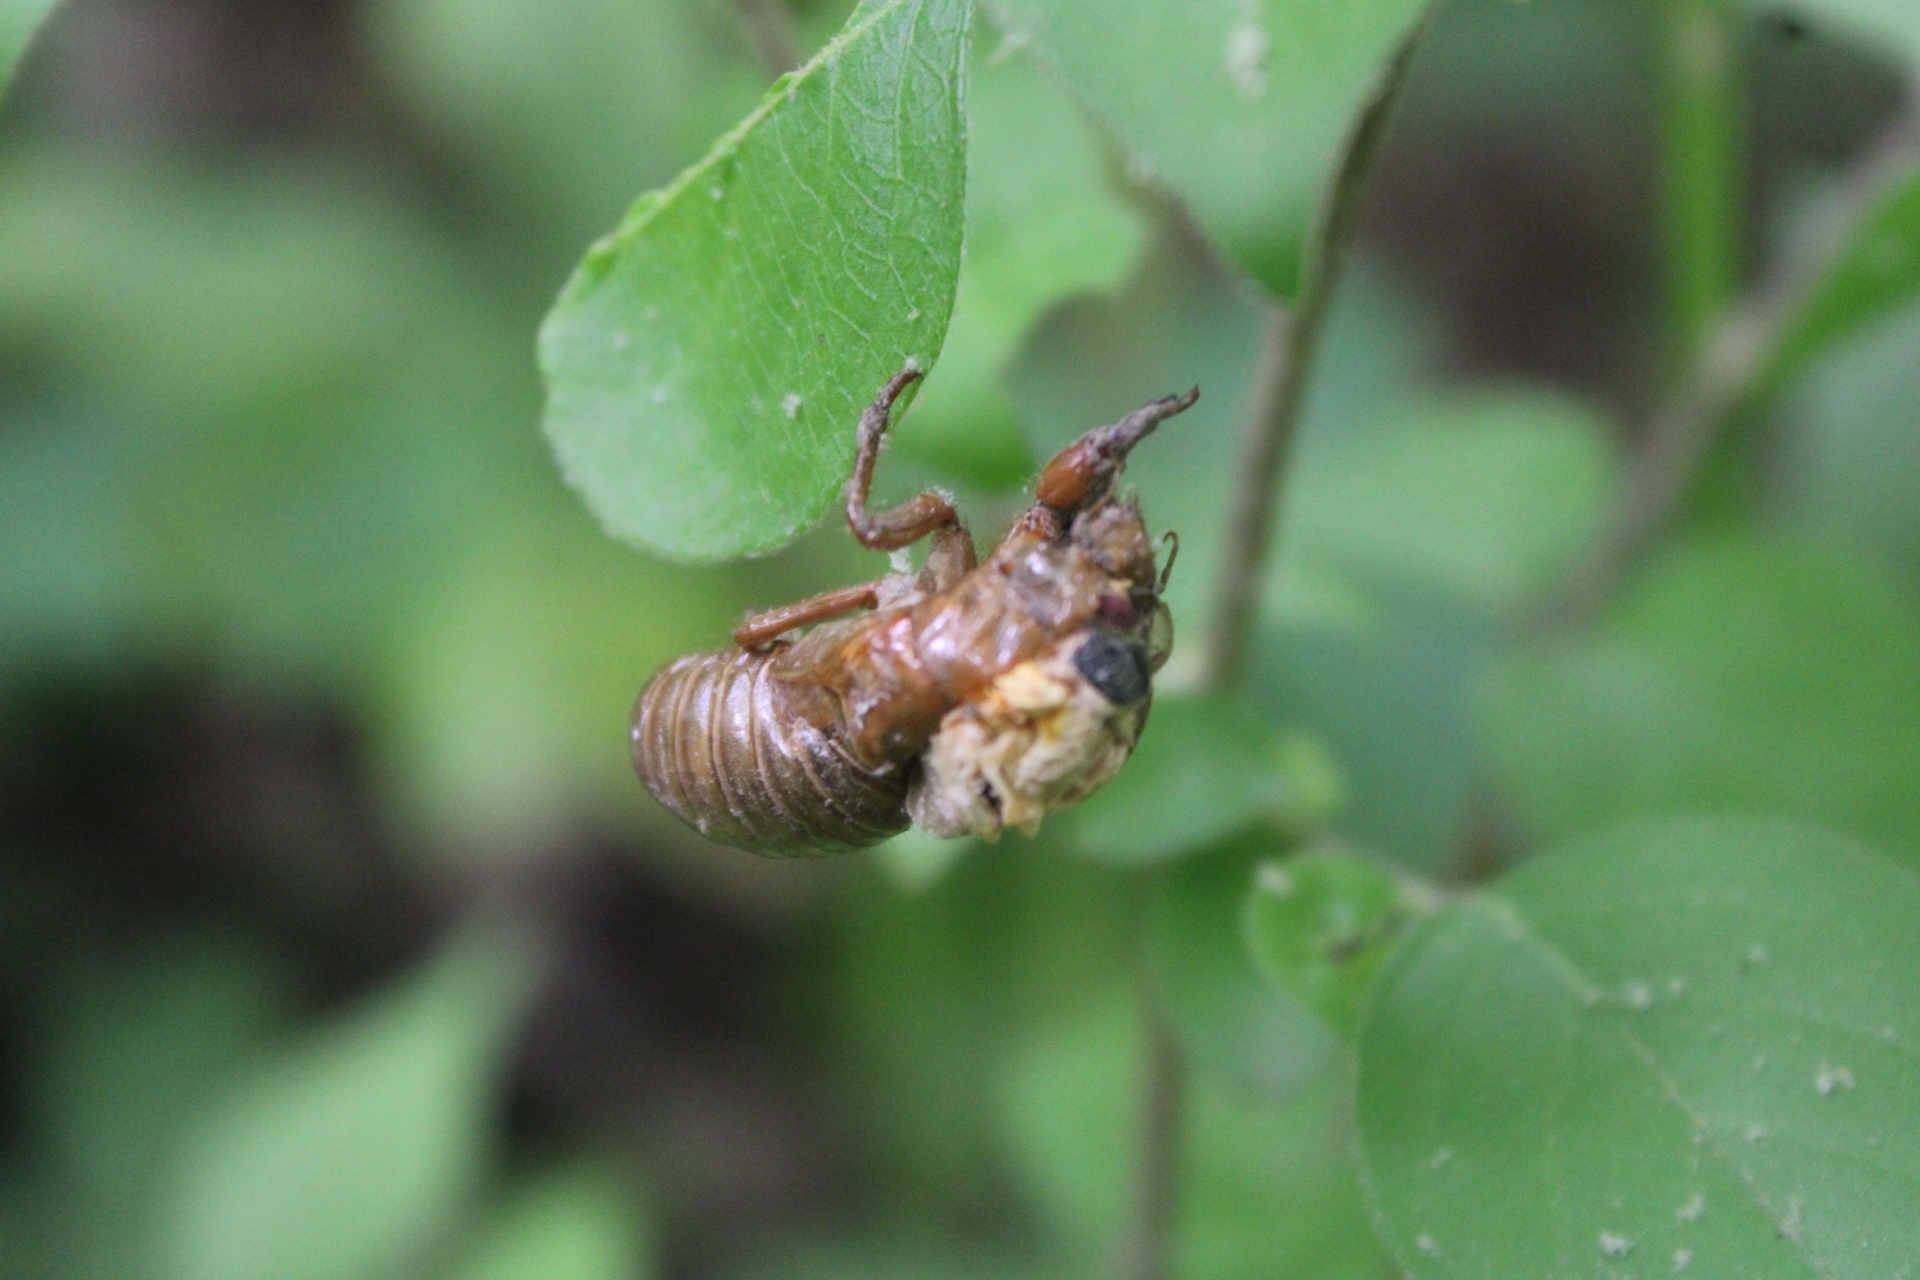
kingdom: Animalia
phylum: Arthropoda
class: Insecta
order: Hemiptera
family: Cicadidae
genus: Magicicada
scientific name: Magicicada
